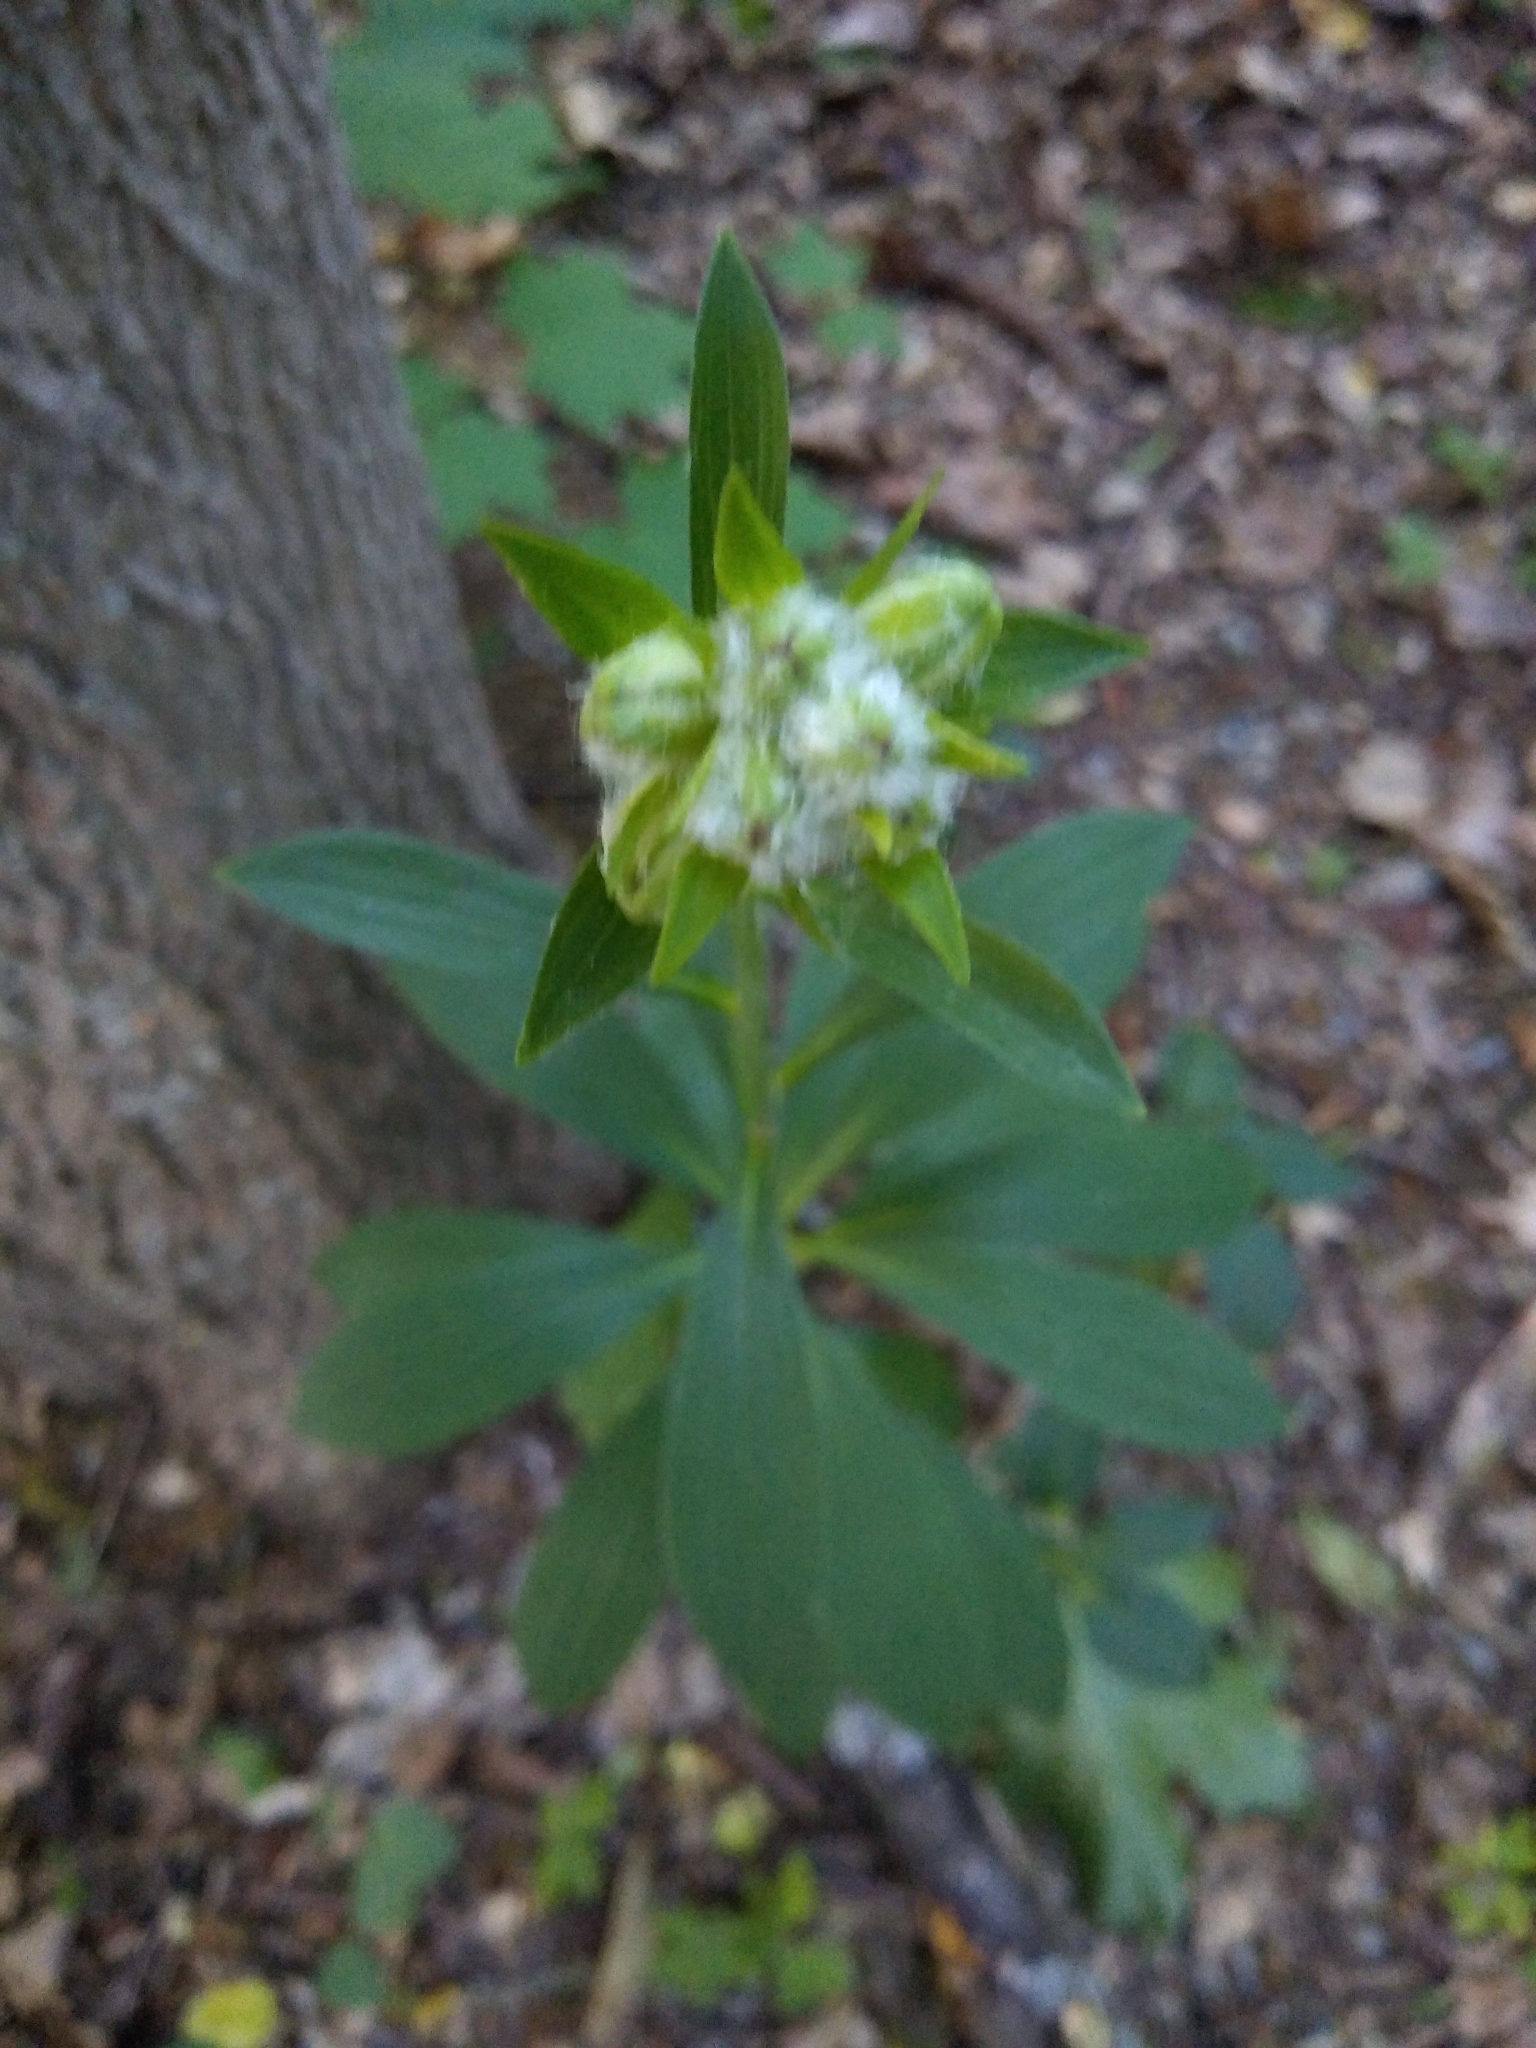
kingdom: Plantae
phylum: Tracheophyta
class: Liliopsida
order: Liliales
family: Liliaceae
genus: Lilium
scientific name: Lilium martagon
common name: Martagon lily
